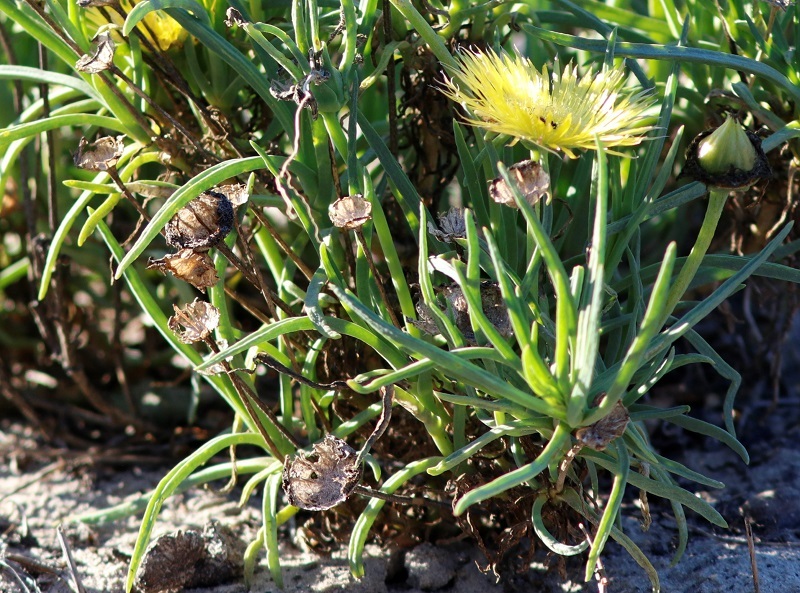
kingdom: Plantae
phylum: Tracheophyta
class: Magnoliopsida
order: Caryophyllales
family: Aizoaceae
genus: Conicosia
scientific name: Conicosia pugioniformis
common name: Narrow-leaved iceplant
